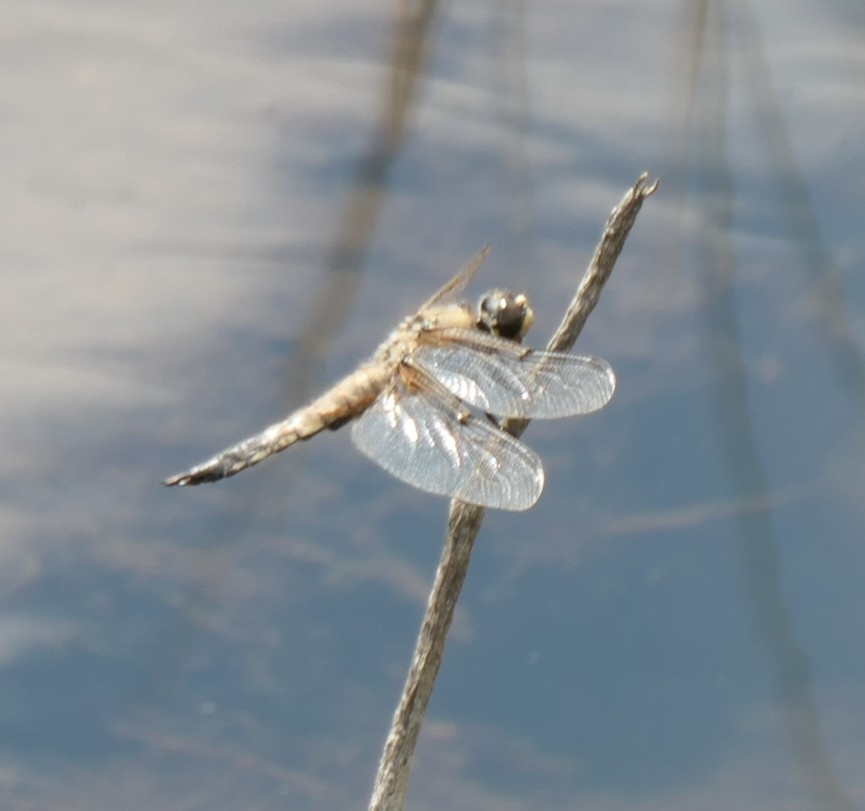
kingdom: Animalia
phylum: Arthropoda
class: Insecta
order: Odonata
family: Libellulidae
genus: Libellula
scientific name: Libellula quadrimaculata
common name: Four-spotted chaser
